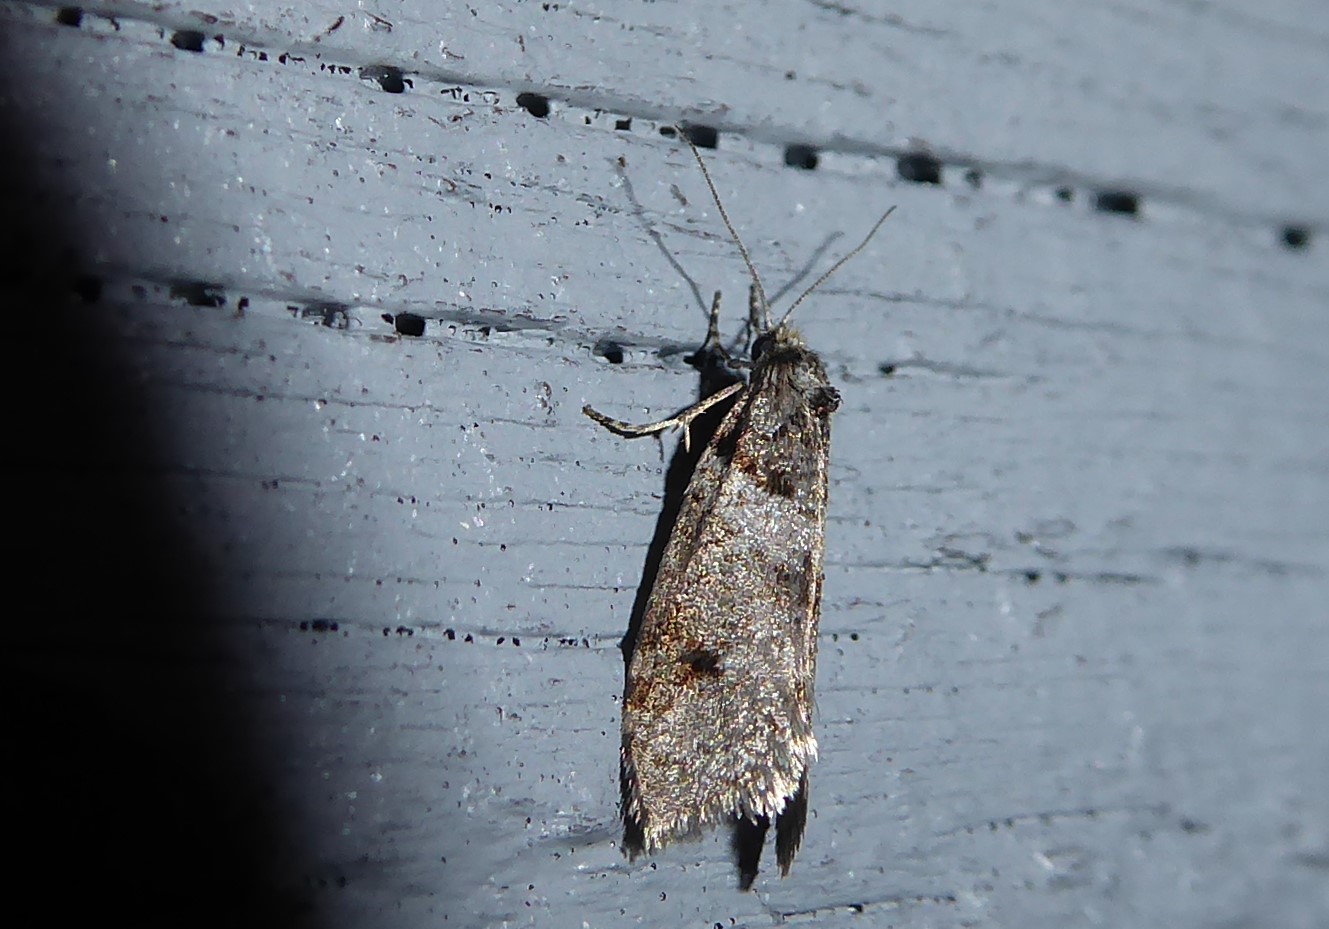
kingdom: Animalia
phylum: Arthropoda
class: Insecta
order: Lepidoptera
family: Psychidae
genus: Lepidoscia
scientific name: Lepidoscia heliochares
